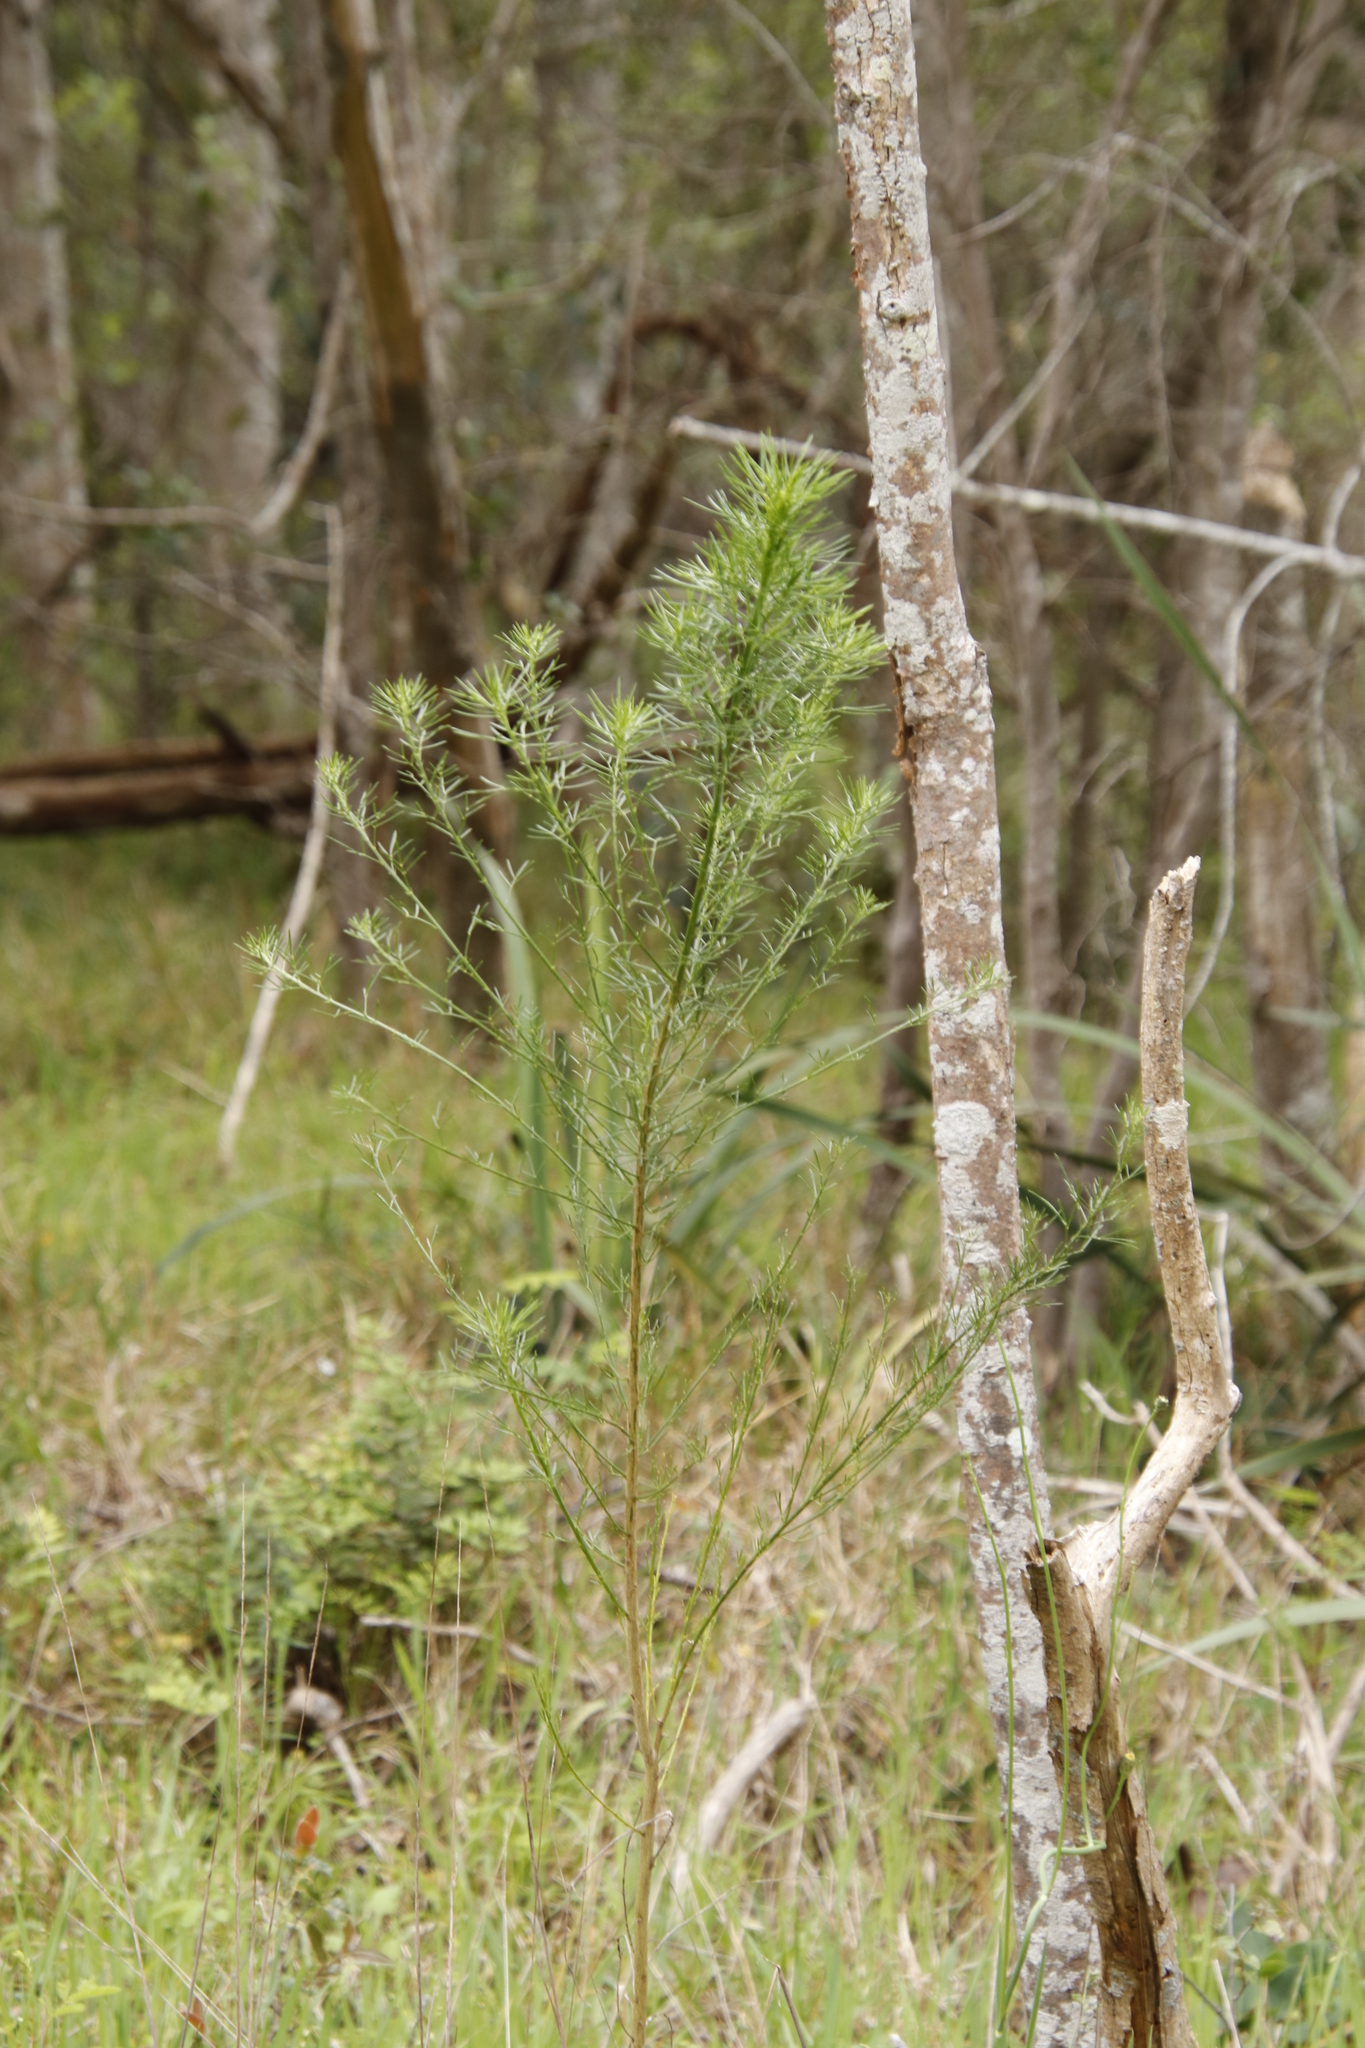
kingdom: Plantae
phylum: Tracheophyta
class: Magnoliopsida
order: Fabales
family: Fabaceae
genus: Psoralea
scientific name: Psoralea pinnata
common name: African scurfpea
